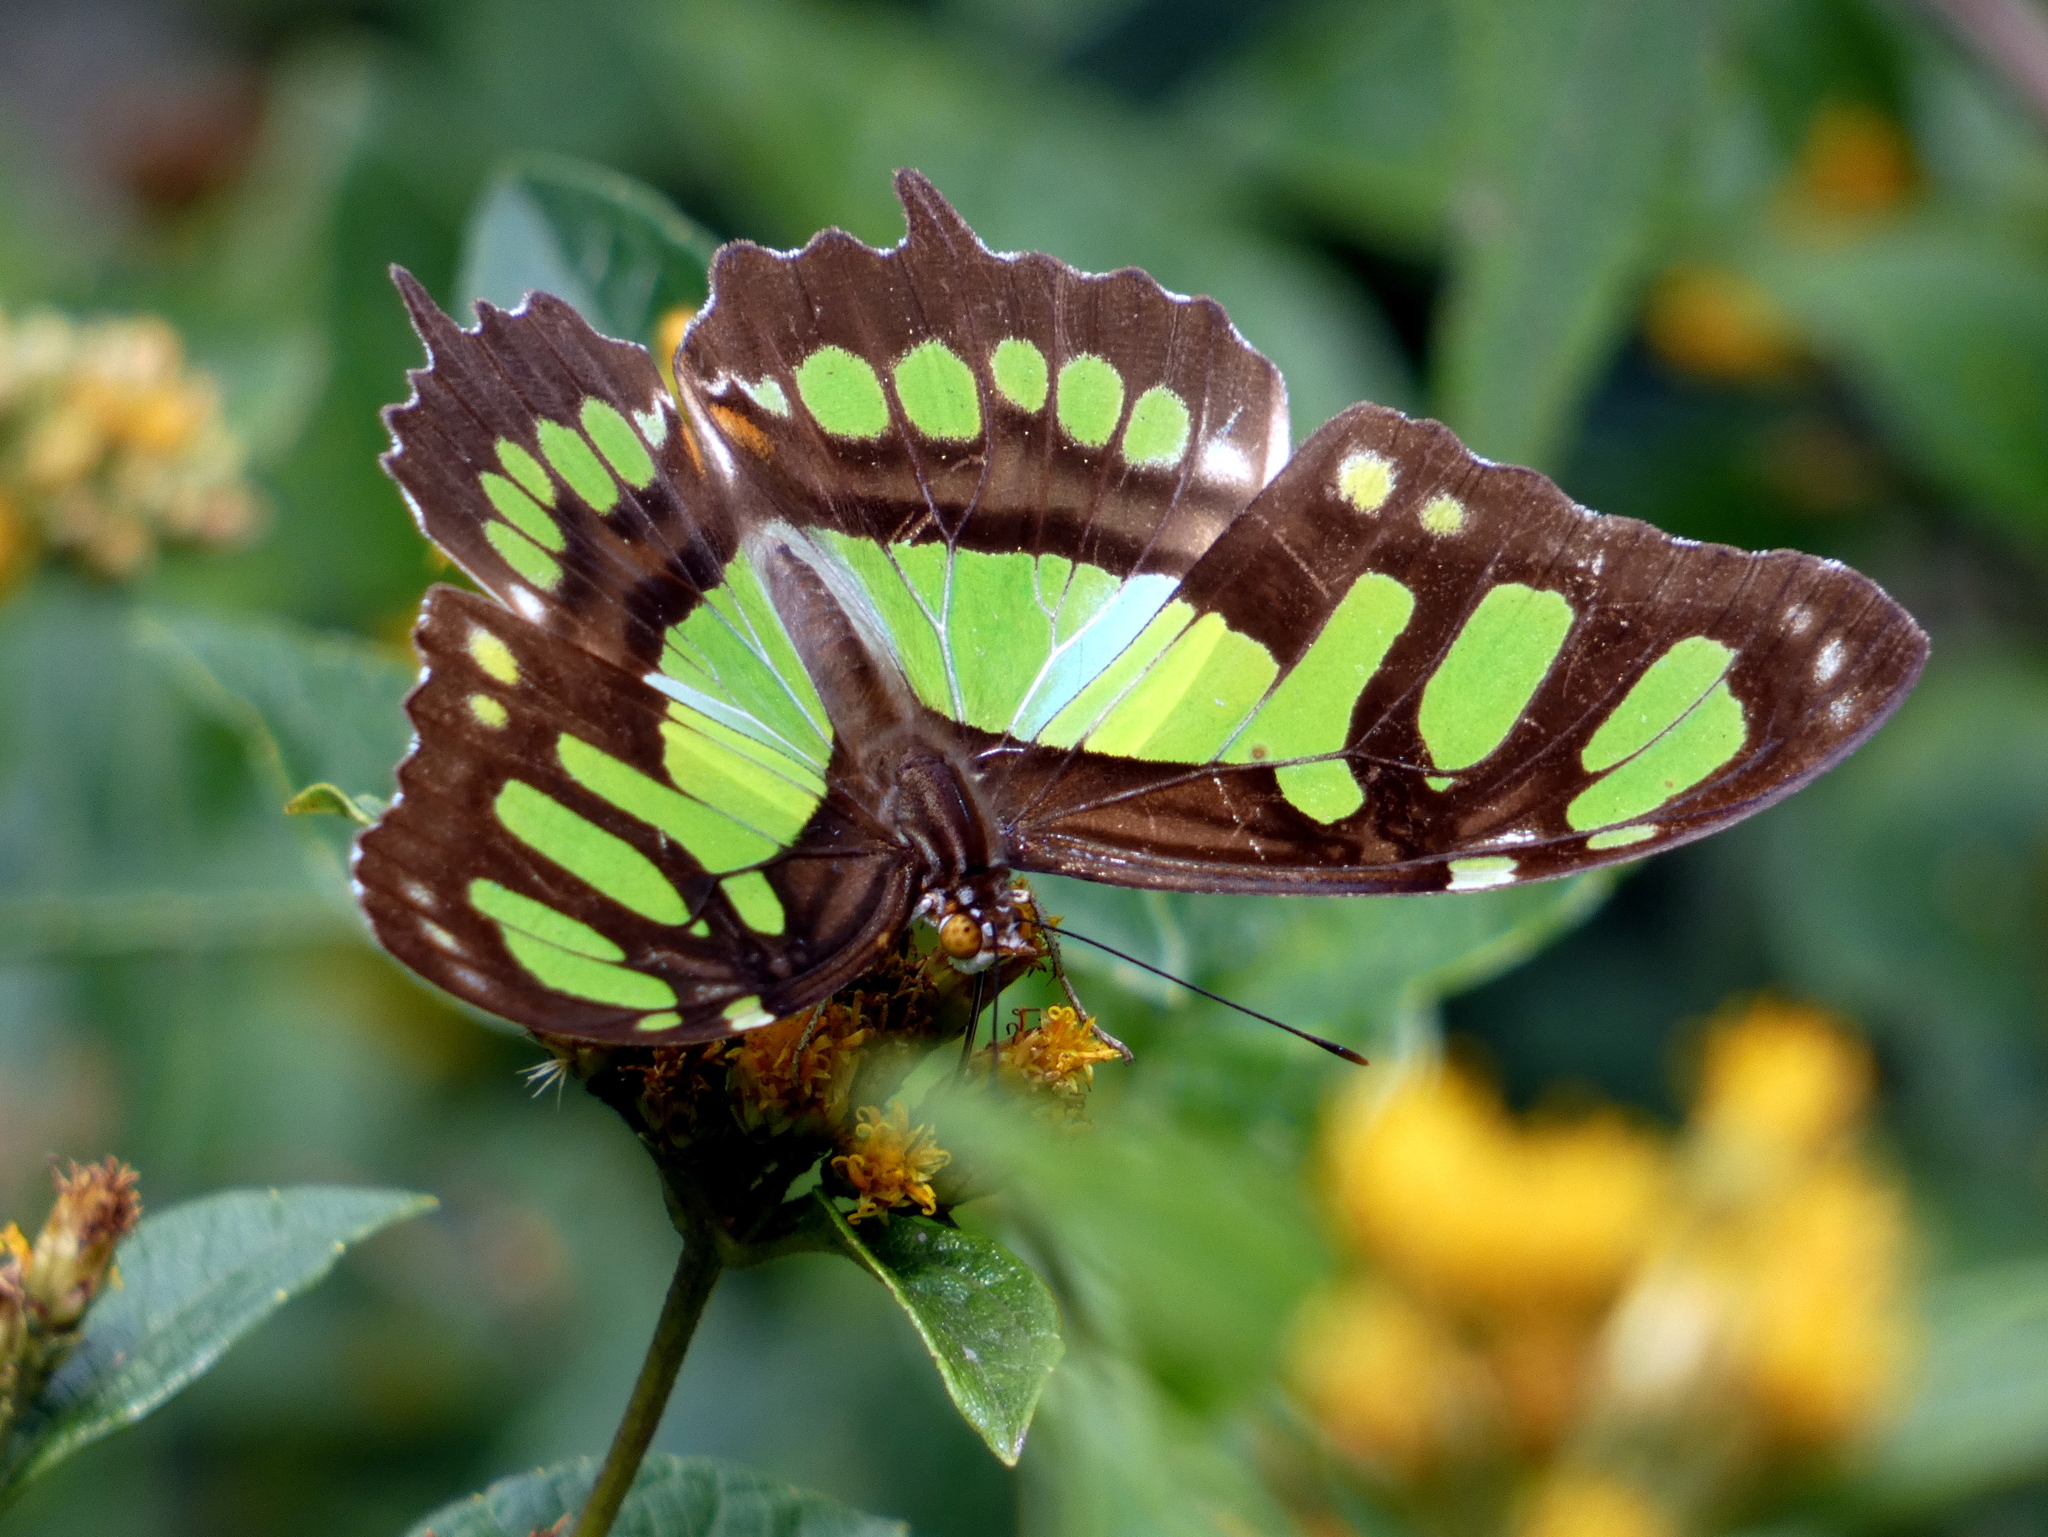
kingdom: Animalia
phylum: Arthropoda
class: Insecta
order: Lepidoptera
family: Nymphalidae
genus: Siproeta
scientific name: Siproeta stelenes
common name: Malachite
